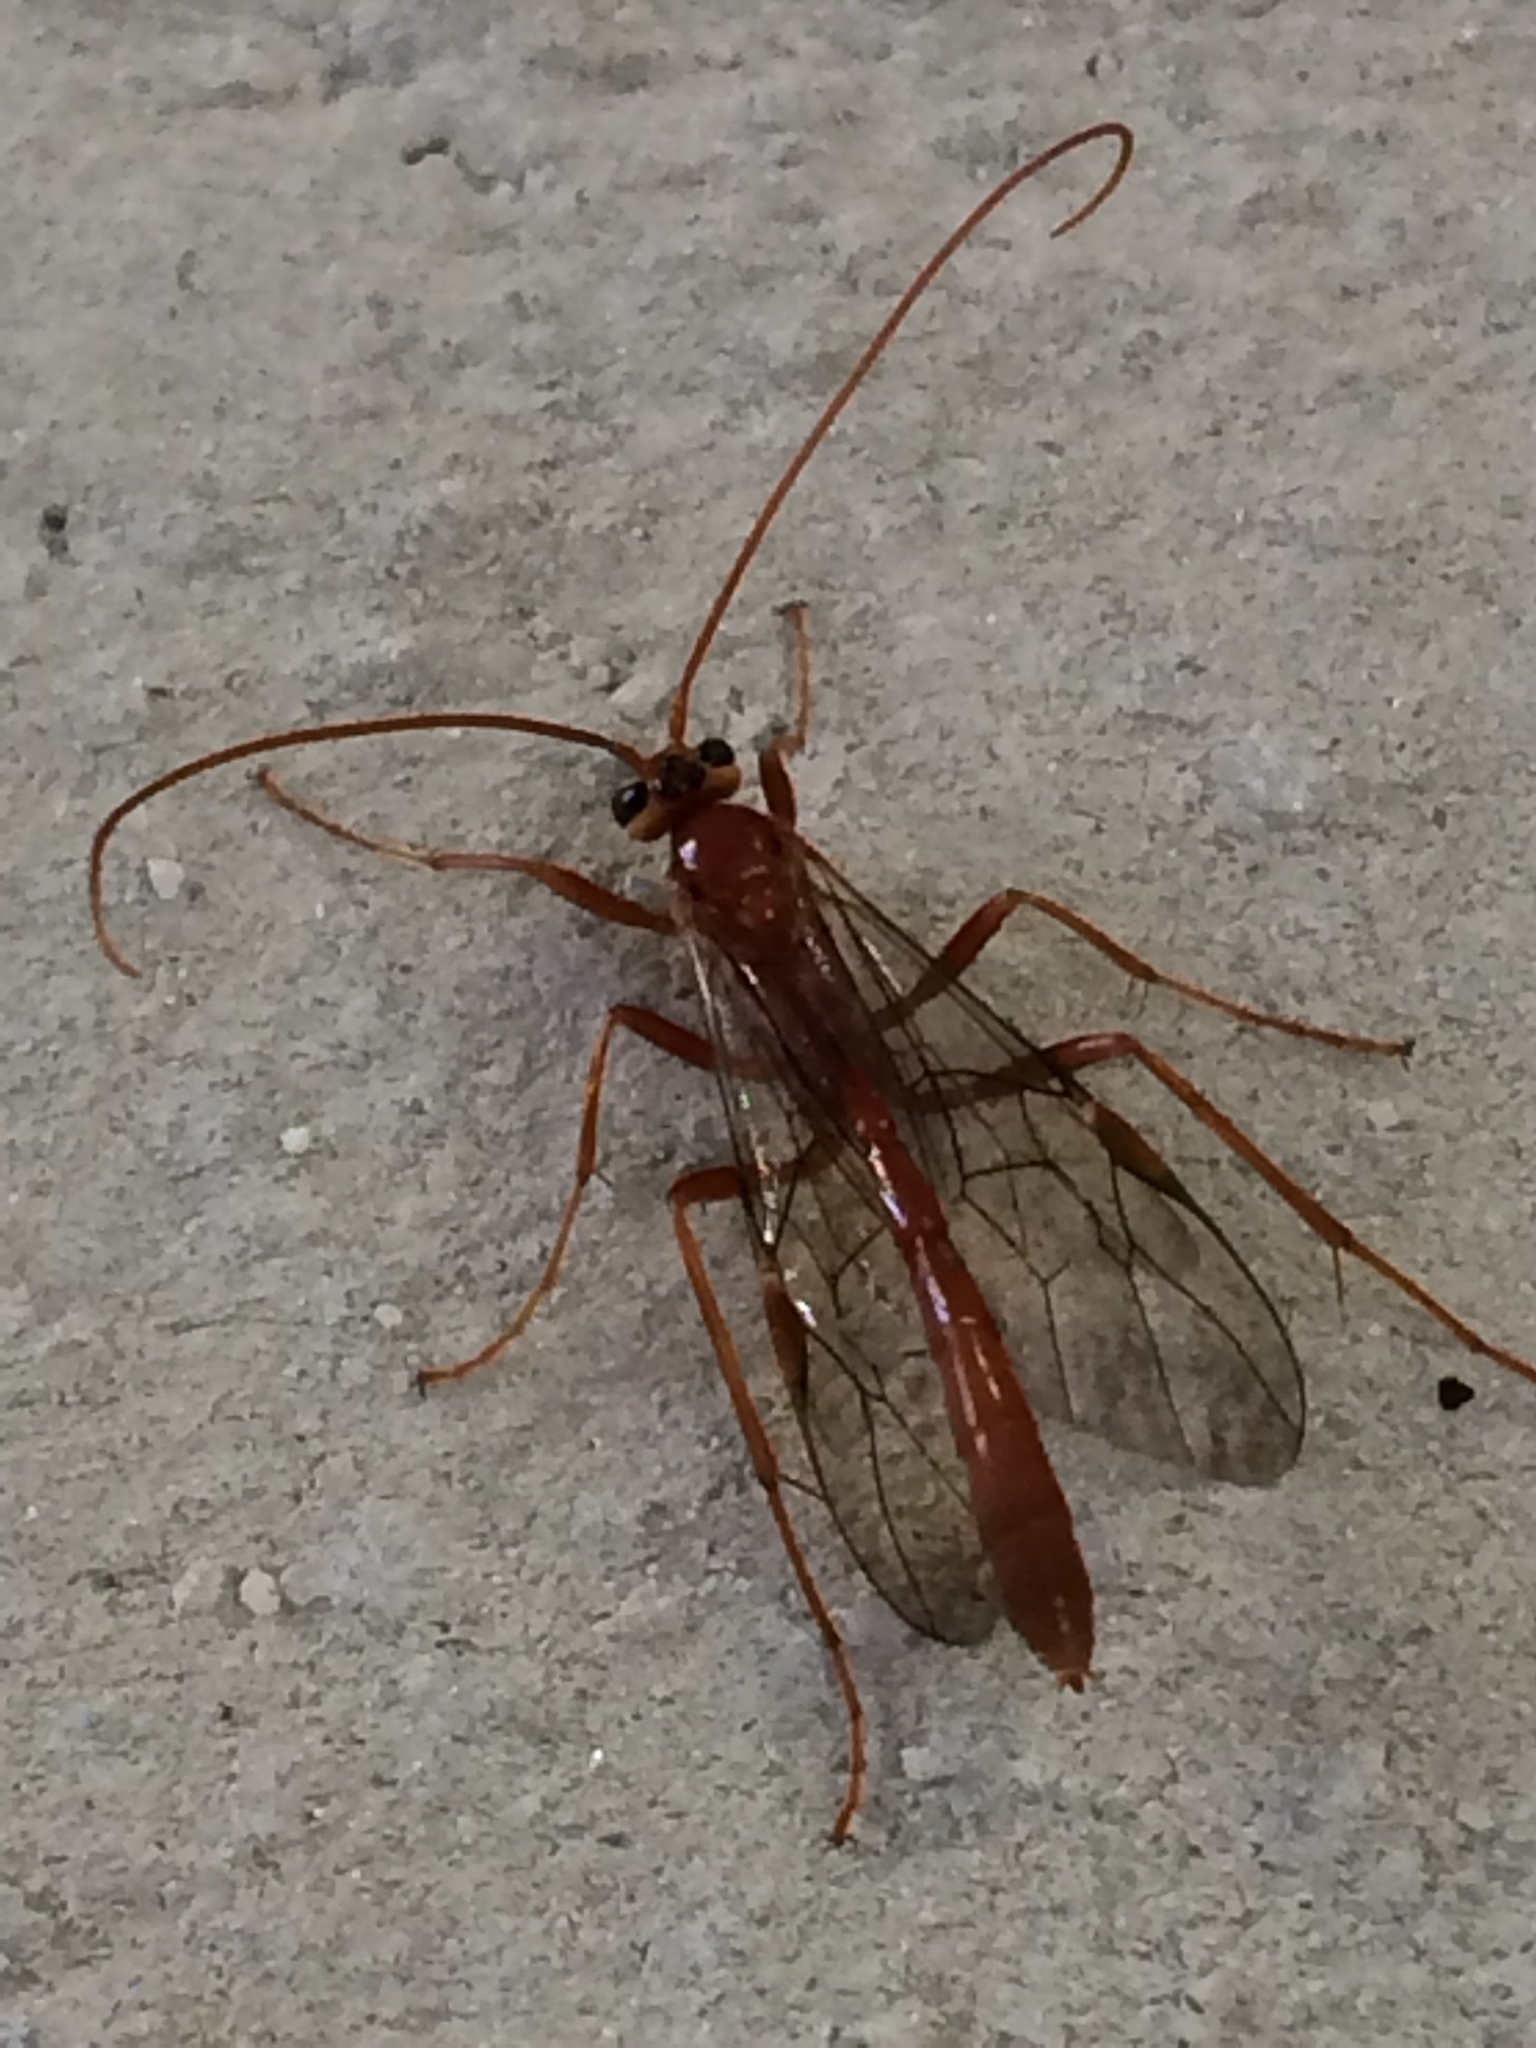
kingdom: Animalia
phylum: Arthropoda
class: Insecta
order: Hymenoptera
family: Ichneumonidae
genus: Ophion
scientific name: Ophion
